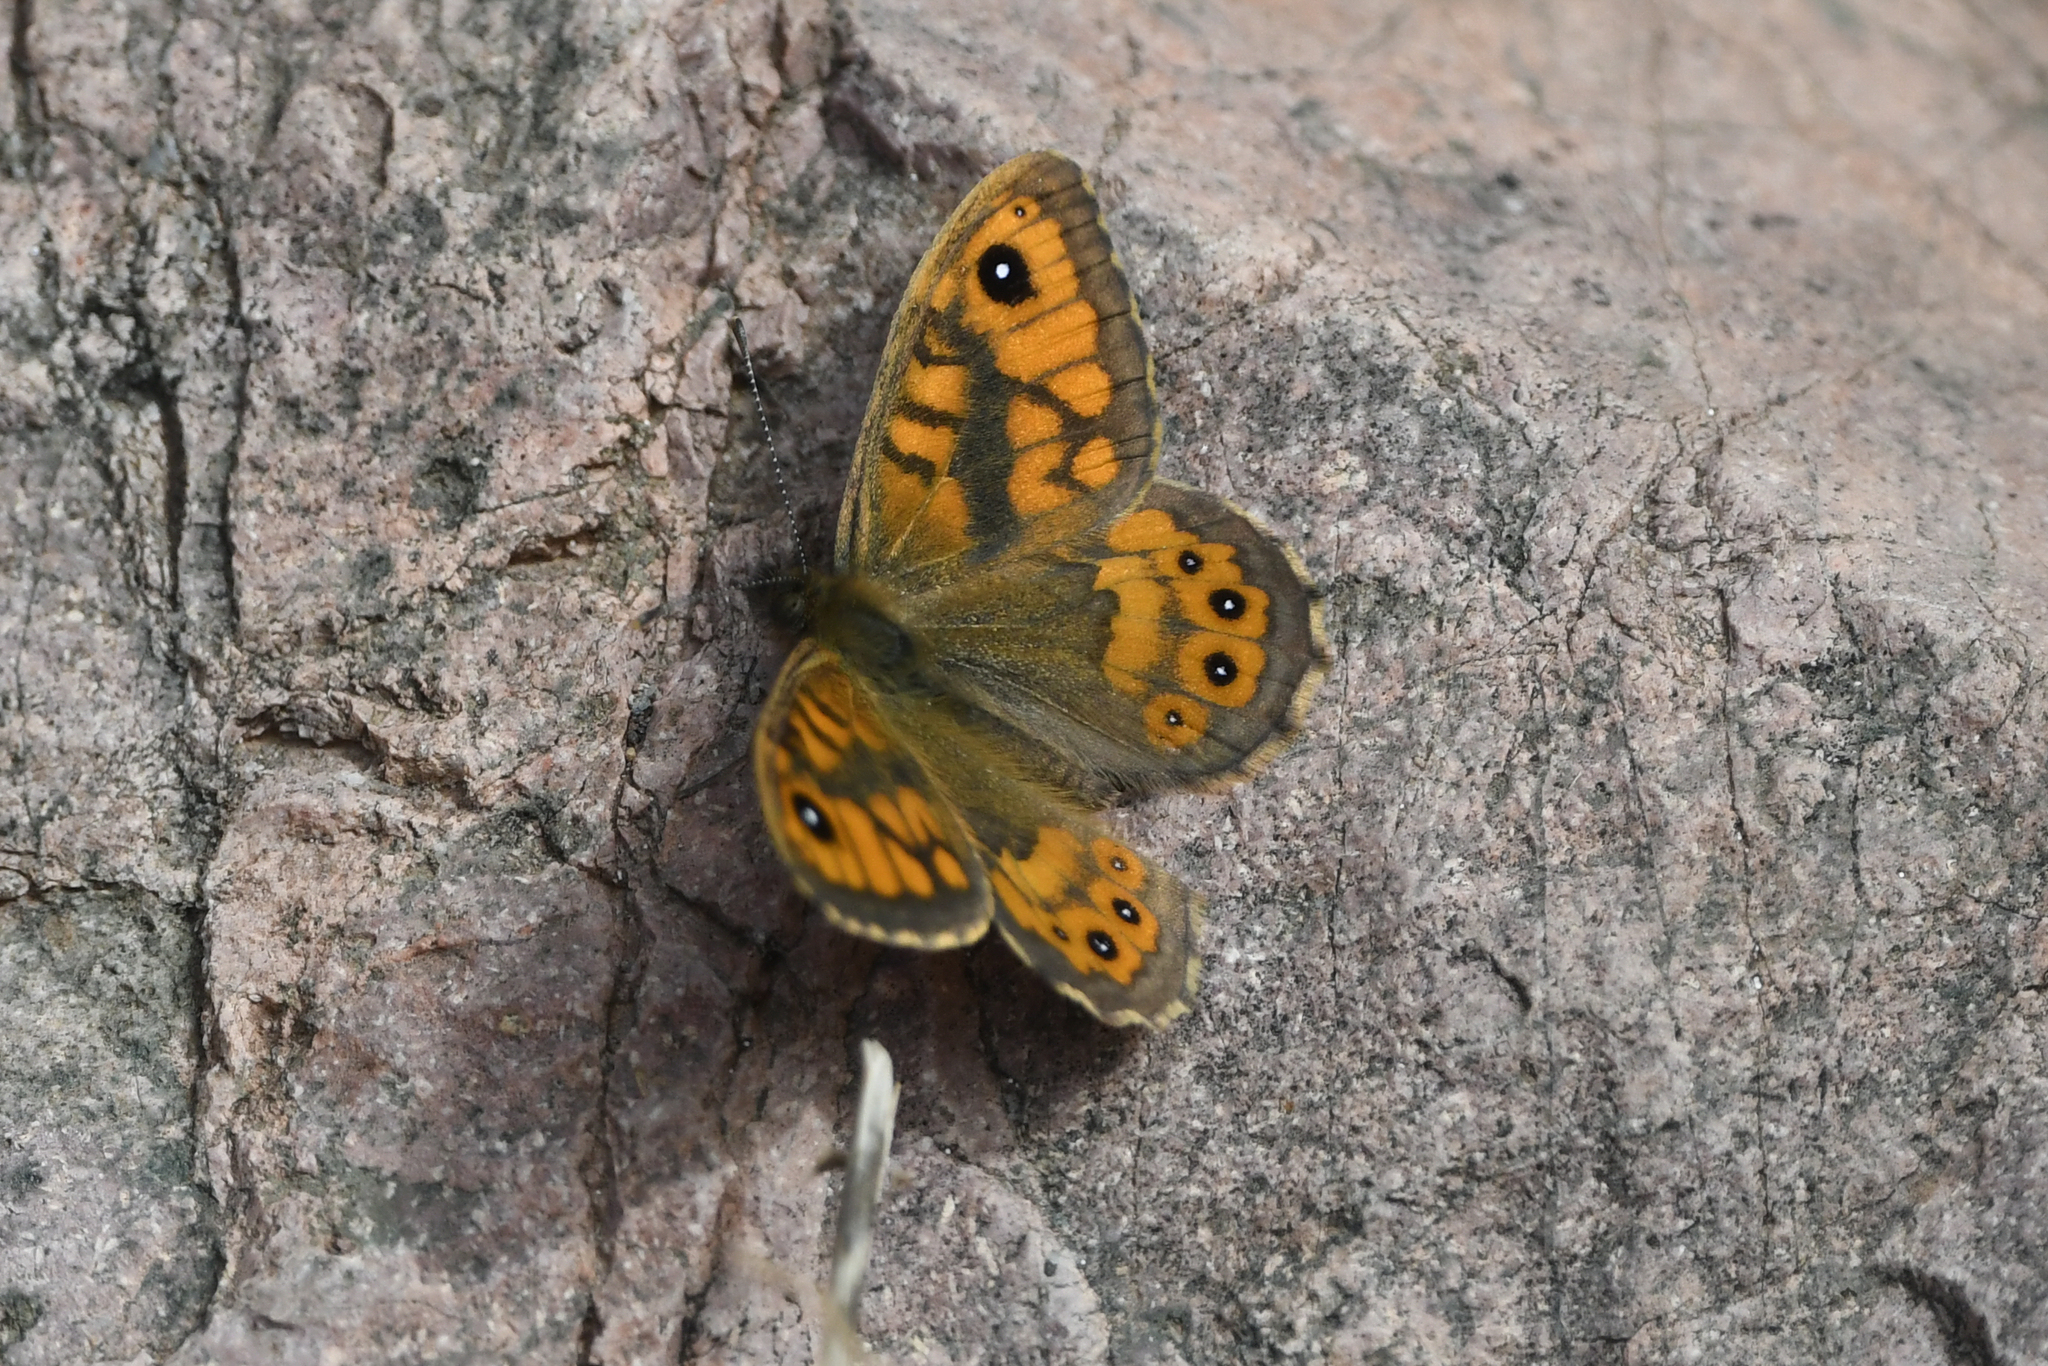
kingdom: Animalia
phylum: Arthropoda
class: Insecta
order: Lepidoptera
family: Nymphalidae
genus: Pararge
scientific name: Pararge Lasiommata megera
